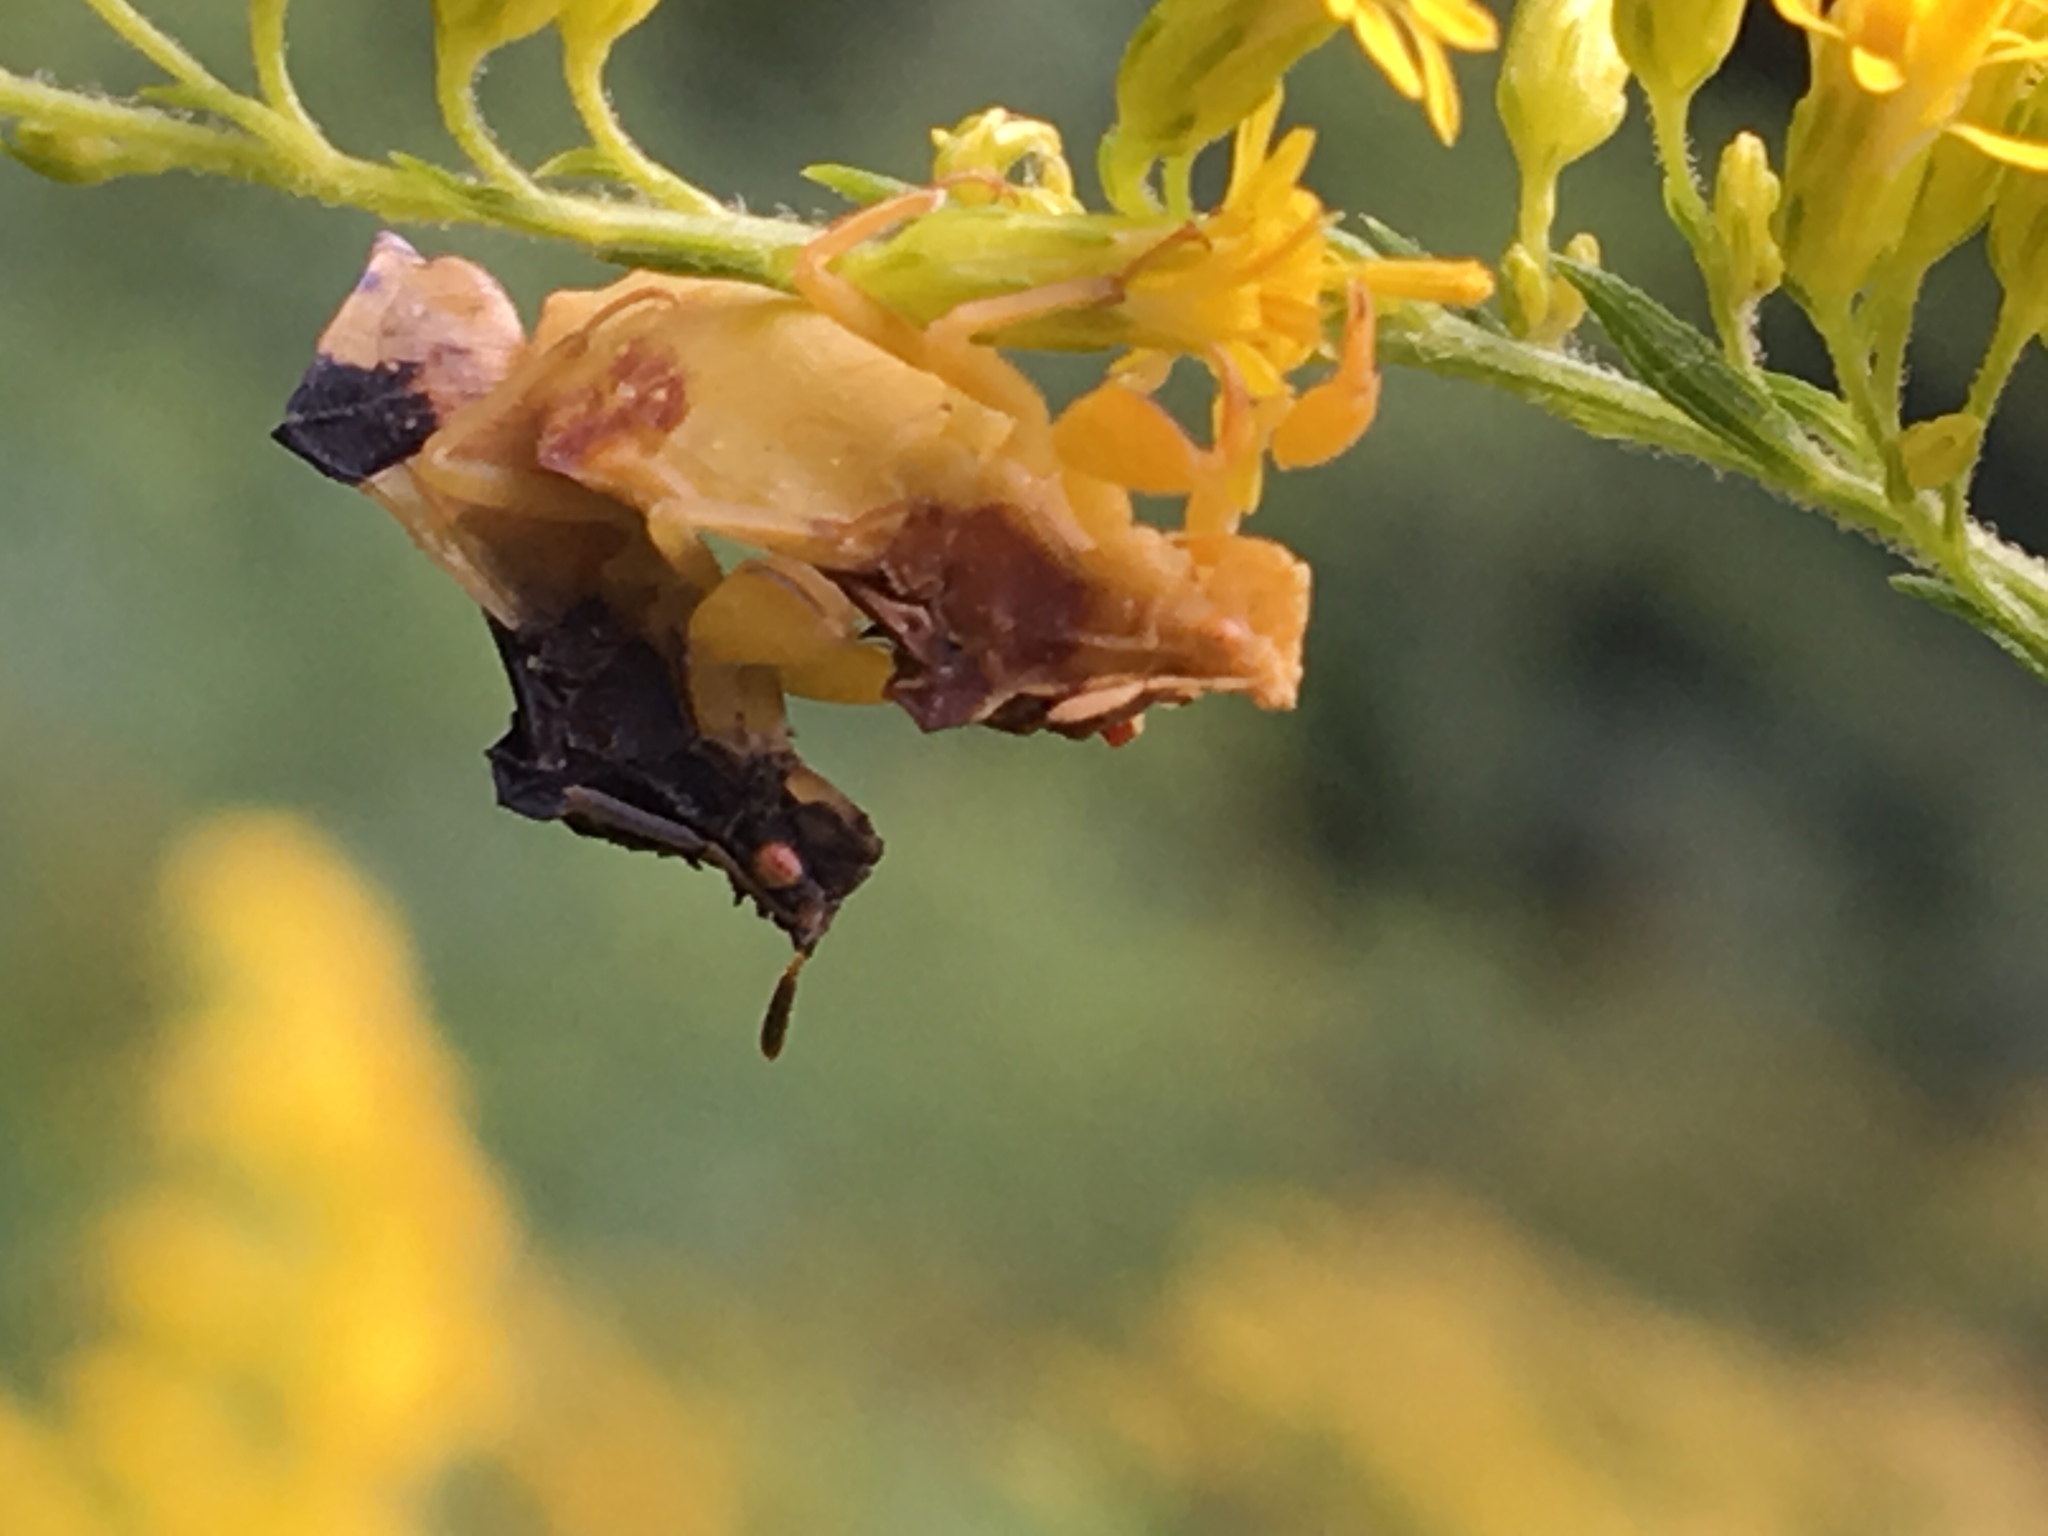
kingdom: Animalia
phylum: Arthropoda
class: Insecta
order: Hemiptera
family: Reduviidae
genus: Phymata
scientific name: Phymata pennsylvanica
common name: Pennsylvania ambush bug
